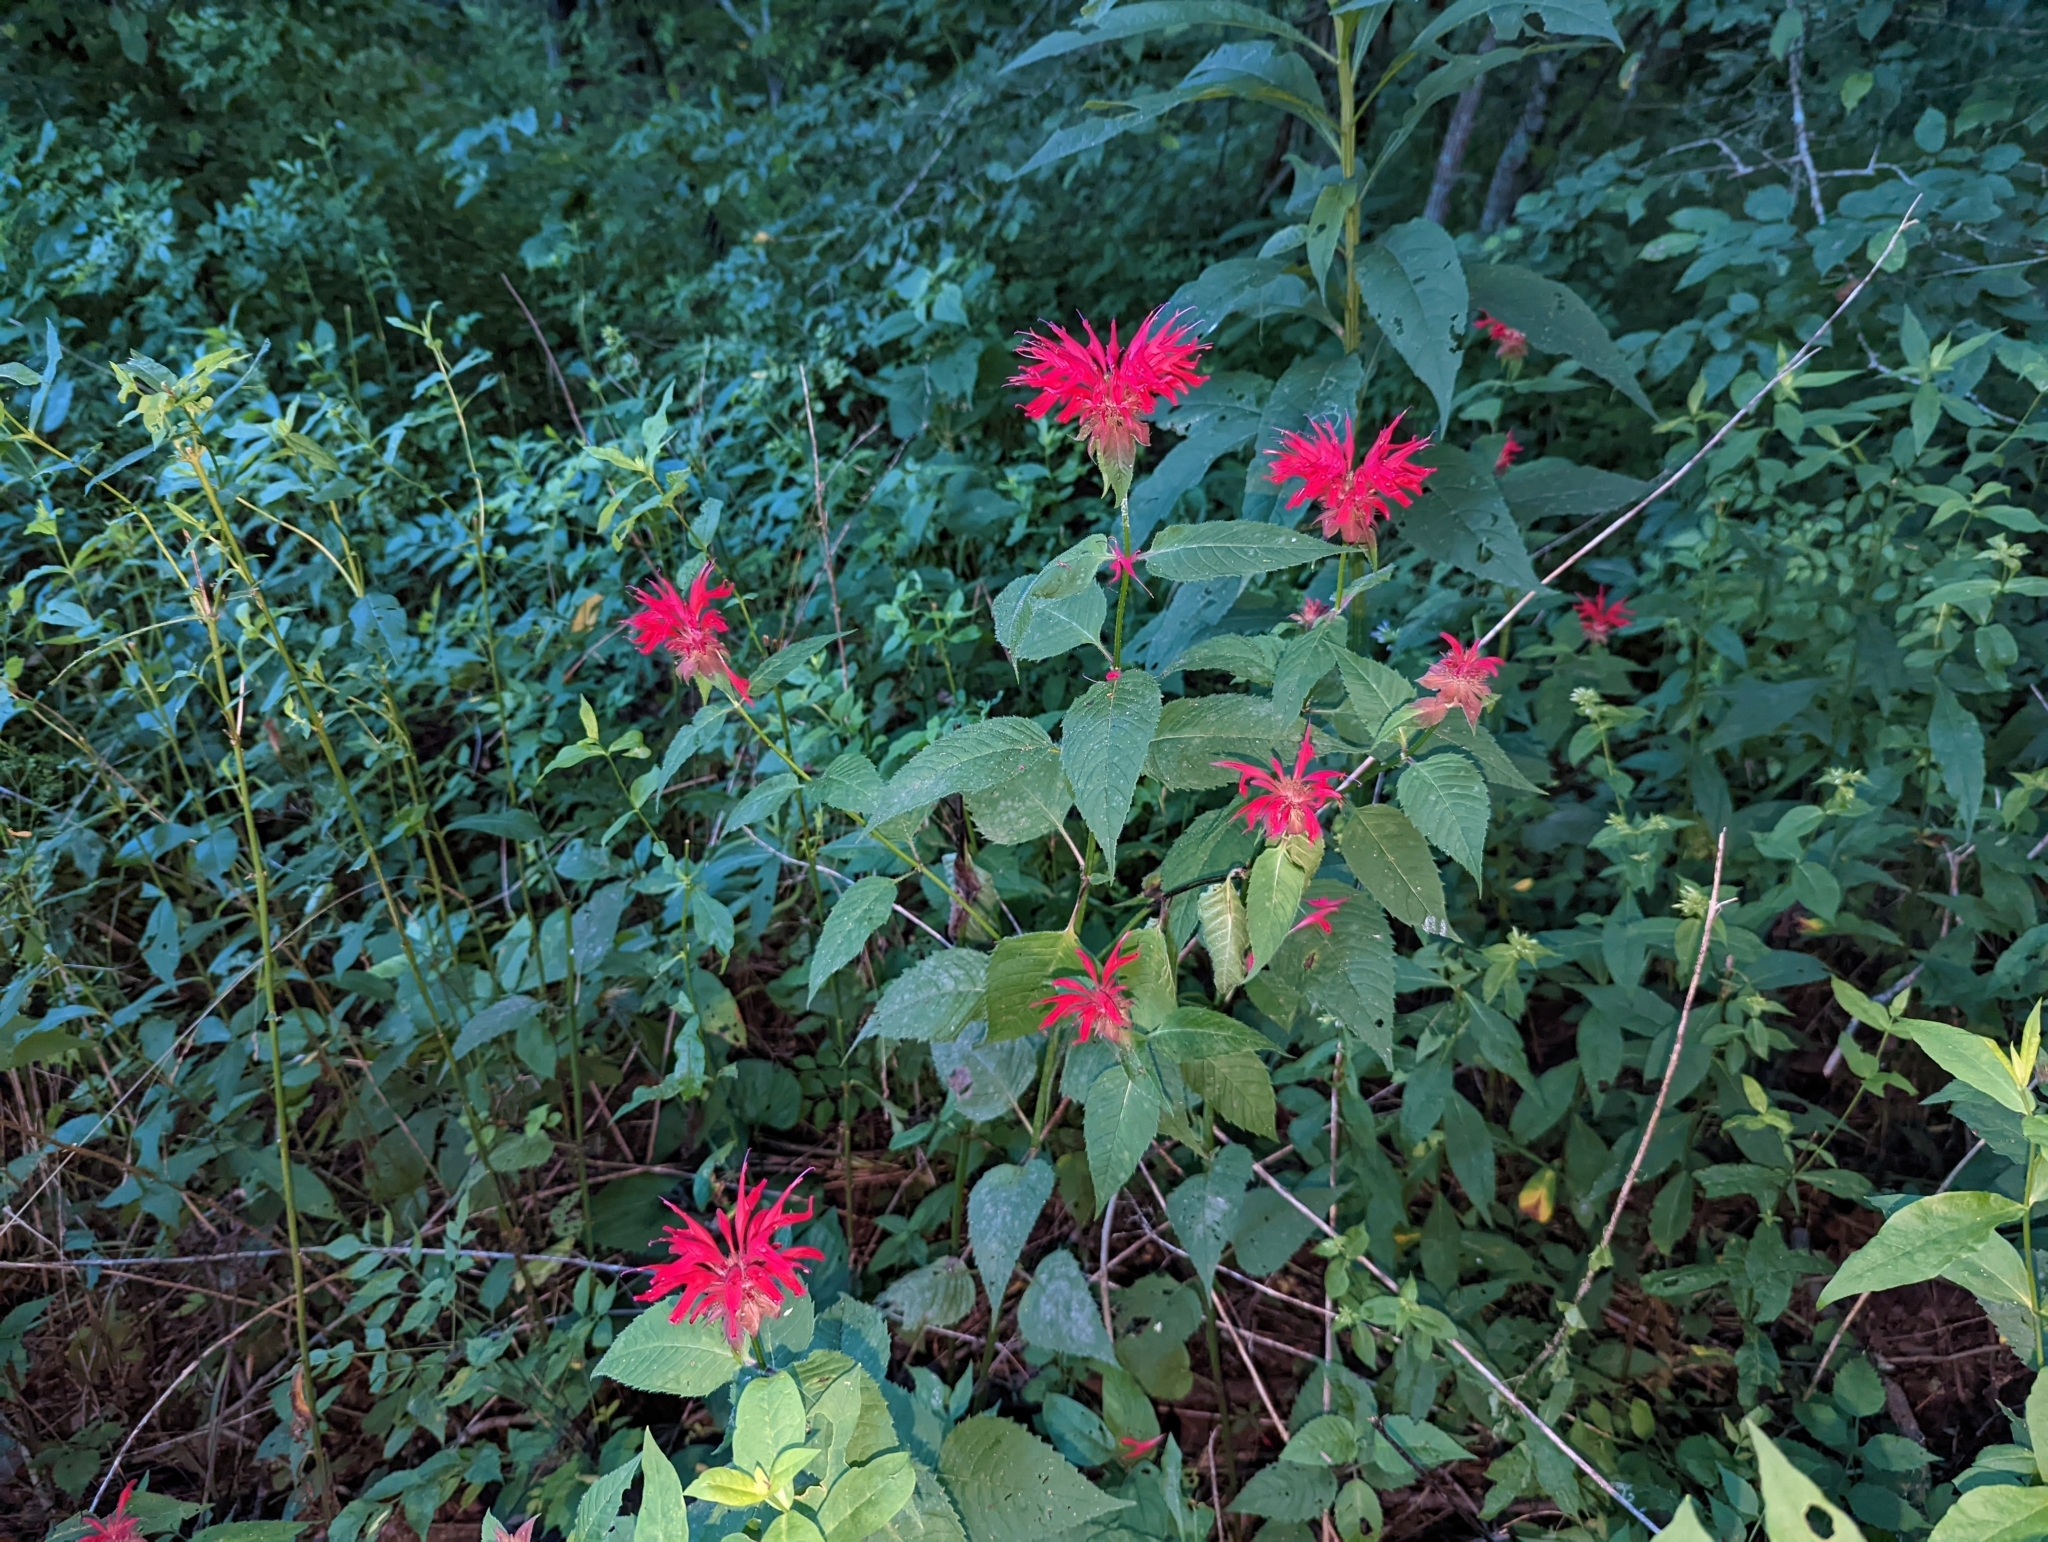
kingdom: Plantae
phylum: Tracheophyta
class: Magnoliopsida
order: Lamiales
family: Lamiaceae
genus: Monarda
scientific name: Monarda didyma
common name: Beebalm
